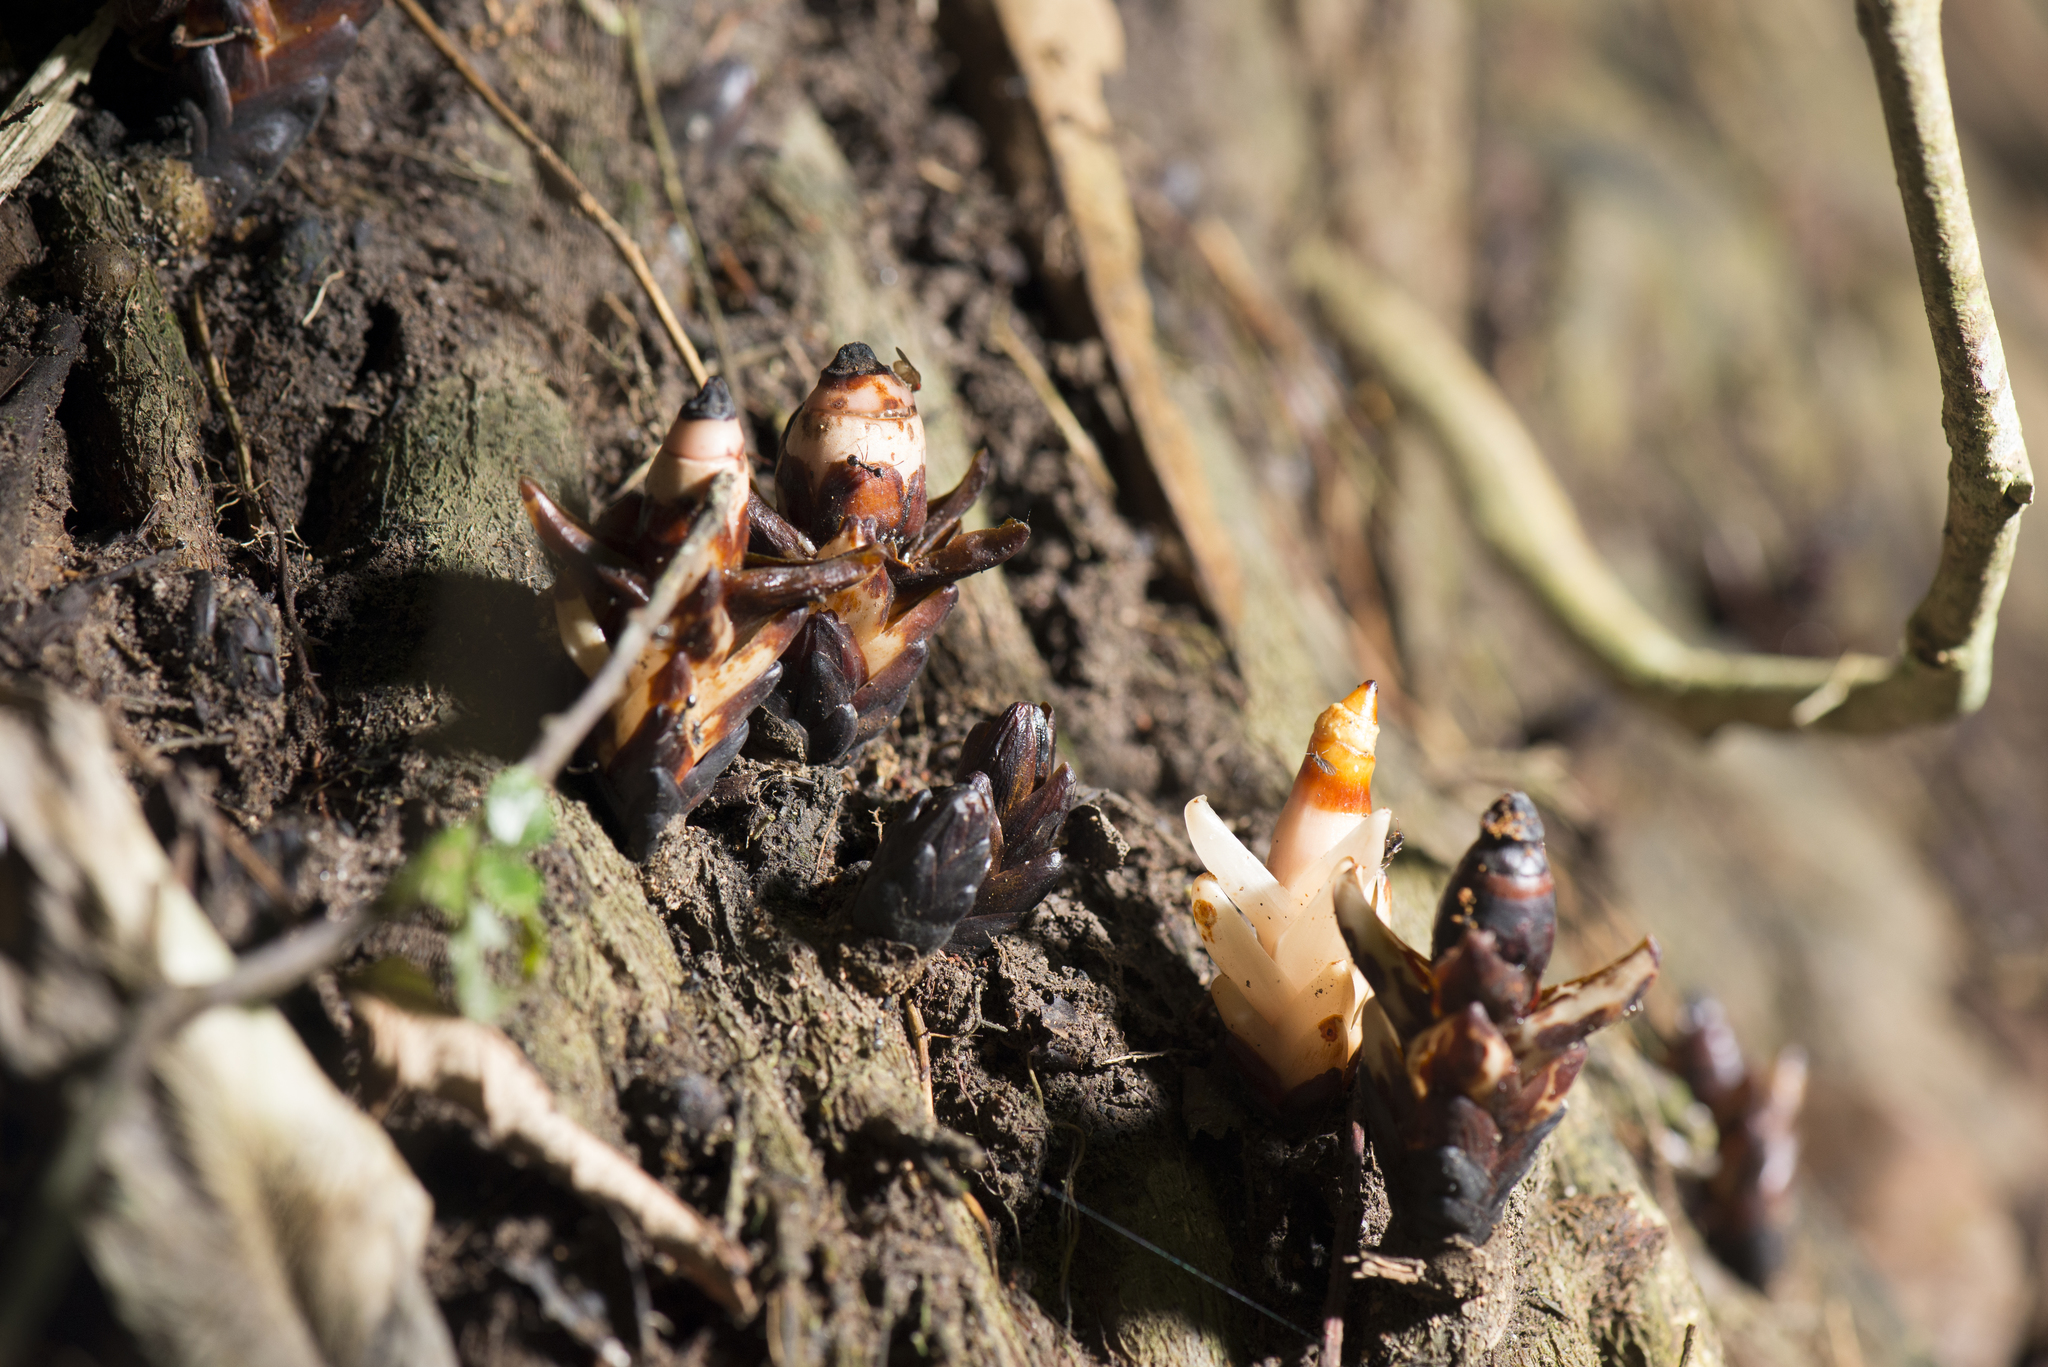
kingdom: Plantae
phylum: Tracheophyta
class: Magnoliopsida
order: Ericales
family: Mitrastemonaceae
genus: Mitrastemon
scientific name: Mitrastemon yamamotoi
